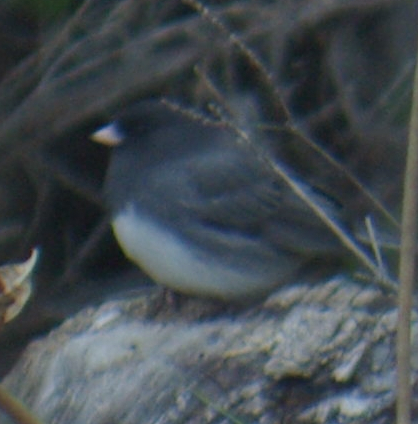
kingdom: Animalia
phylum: Chordata
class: Aves
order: Passeriformes
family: Passerellidae
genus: Junco
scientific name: Junco hyemalis
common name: Dark-eyed junco
